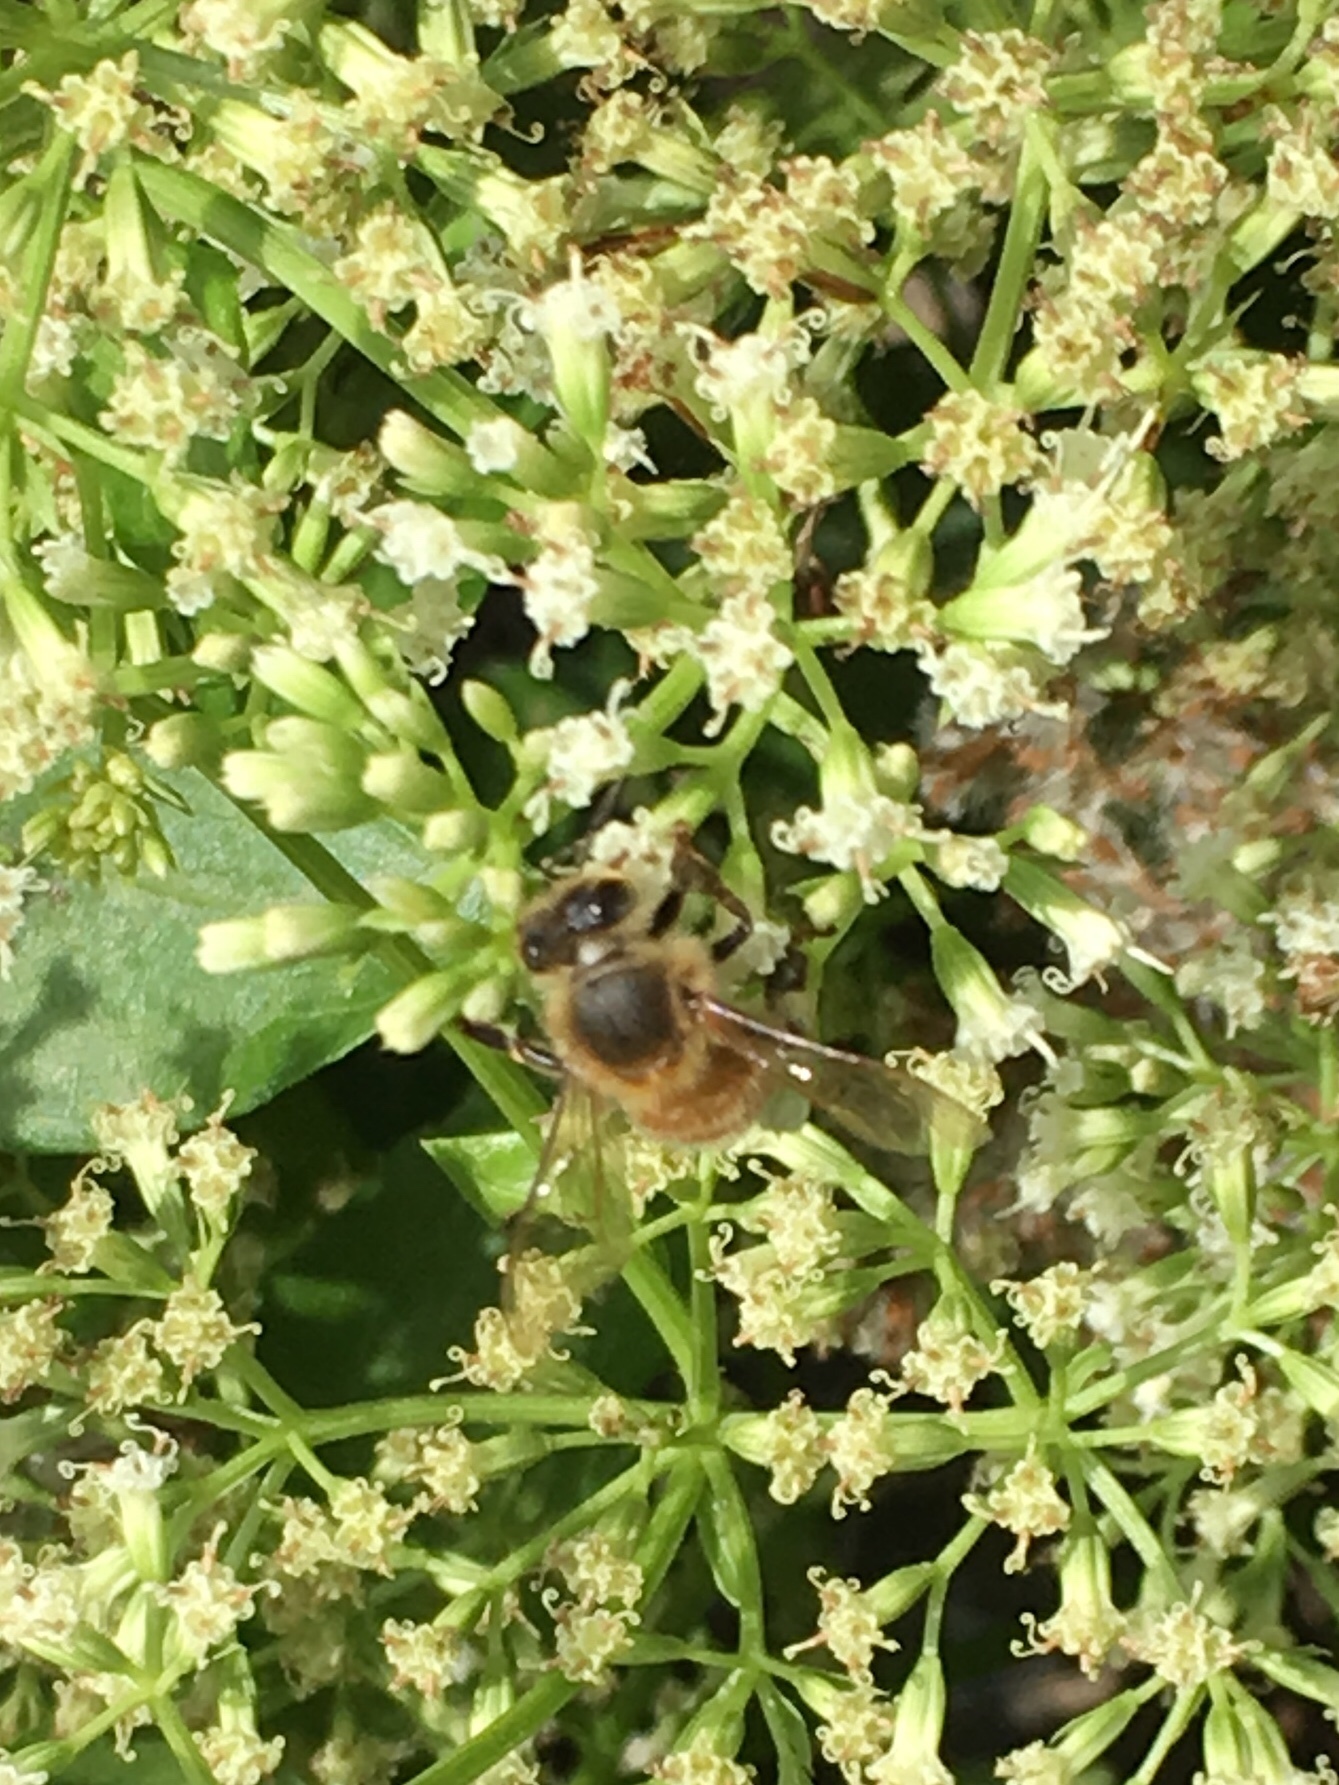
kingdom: Animalia
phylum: Arthropoda
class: Insecta
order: Hymenoptera
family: Apidae
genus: Apis
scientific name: Apis mellifera
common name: Honey bee
